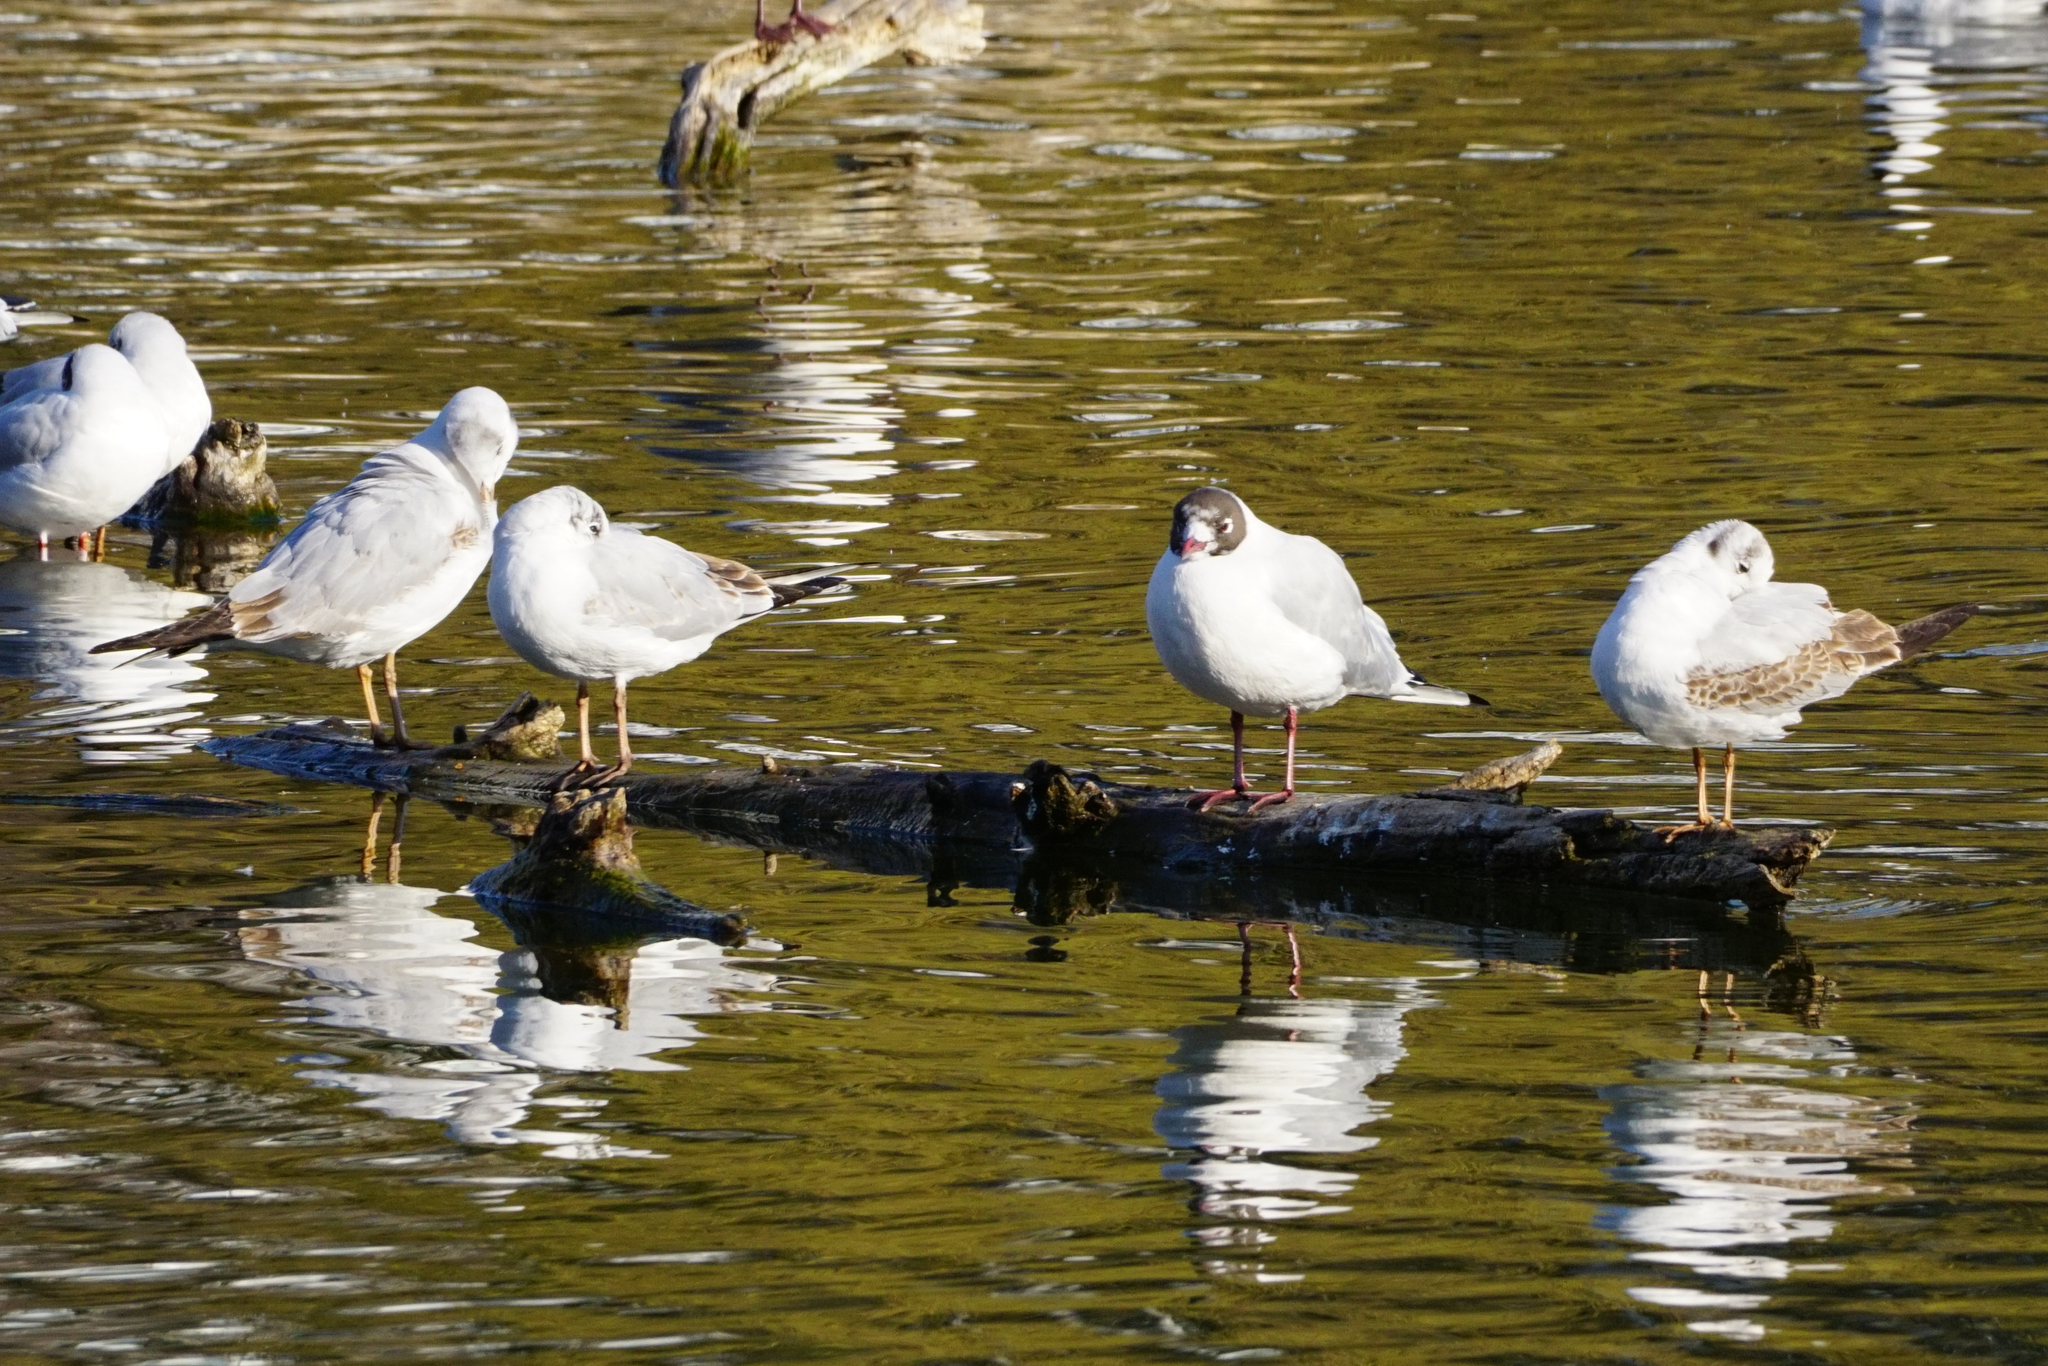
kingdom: Animalia
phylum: Chordata
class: Aves
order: Charadriiformes
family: Laridae
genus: Chroicocephalus
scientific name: Chroicocephalus ridibundus
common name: Black-headed gull
